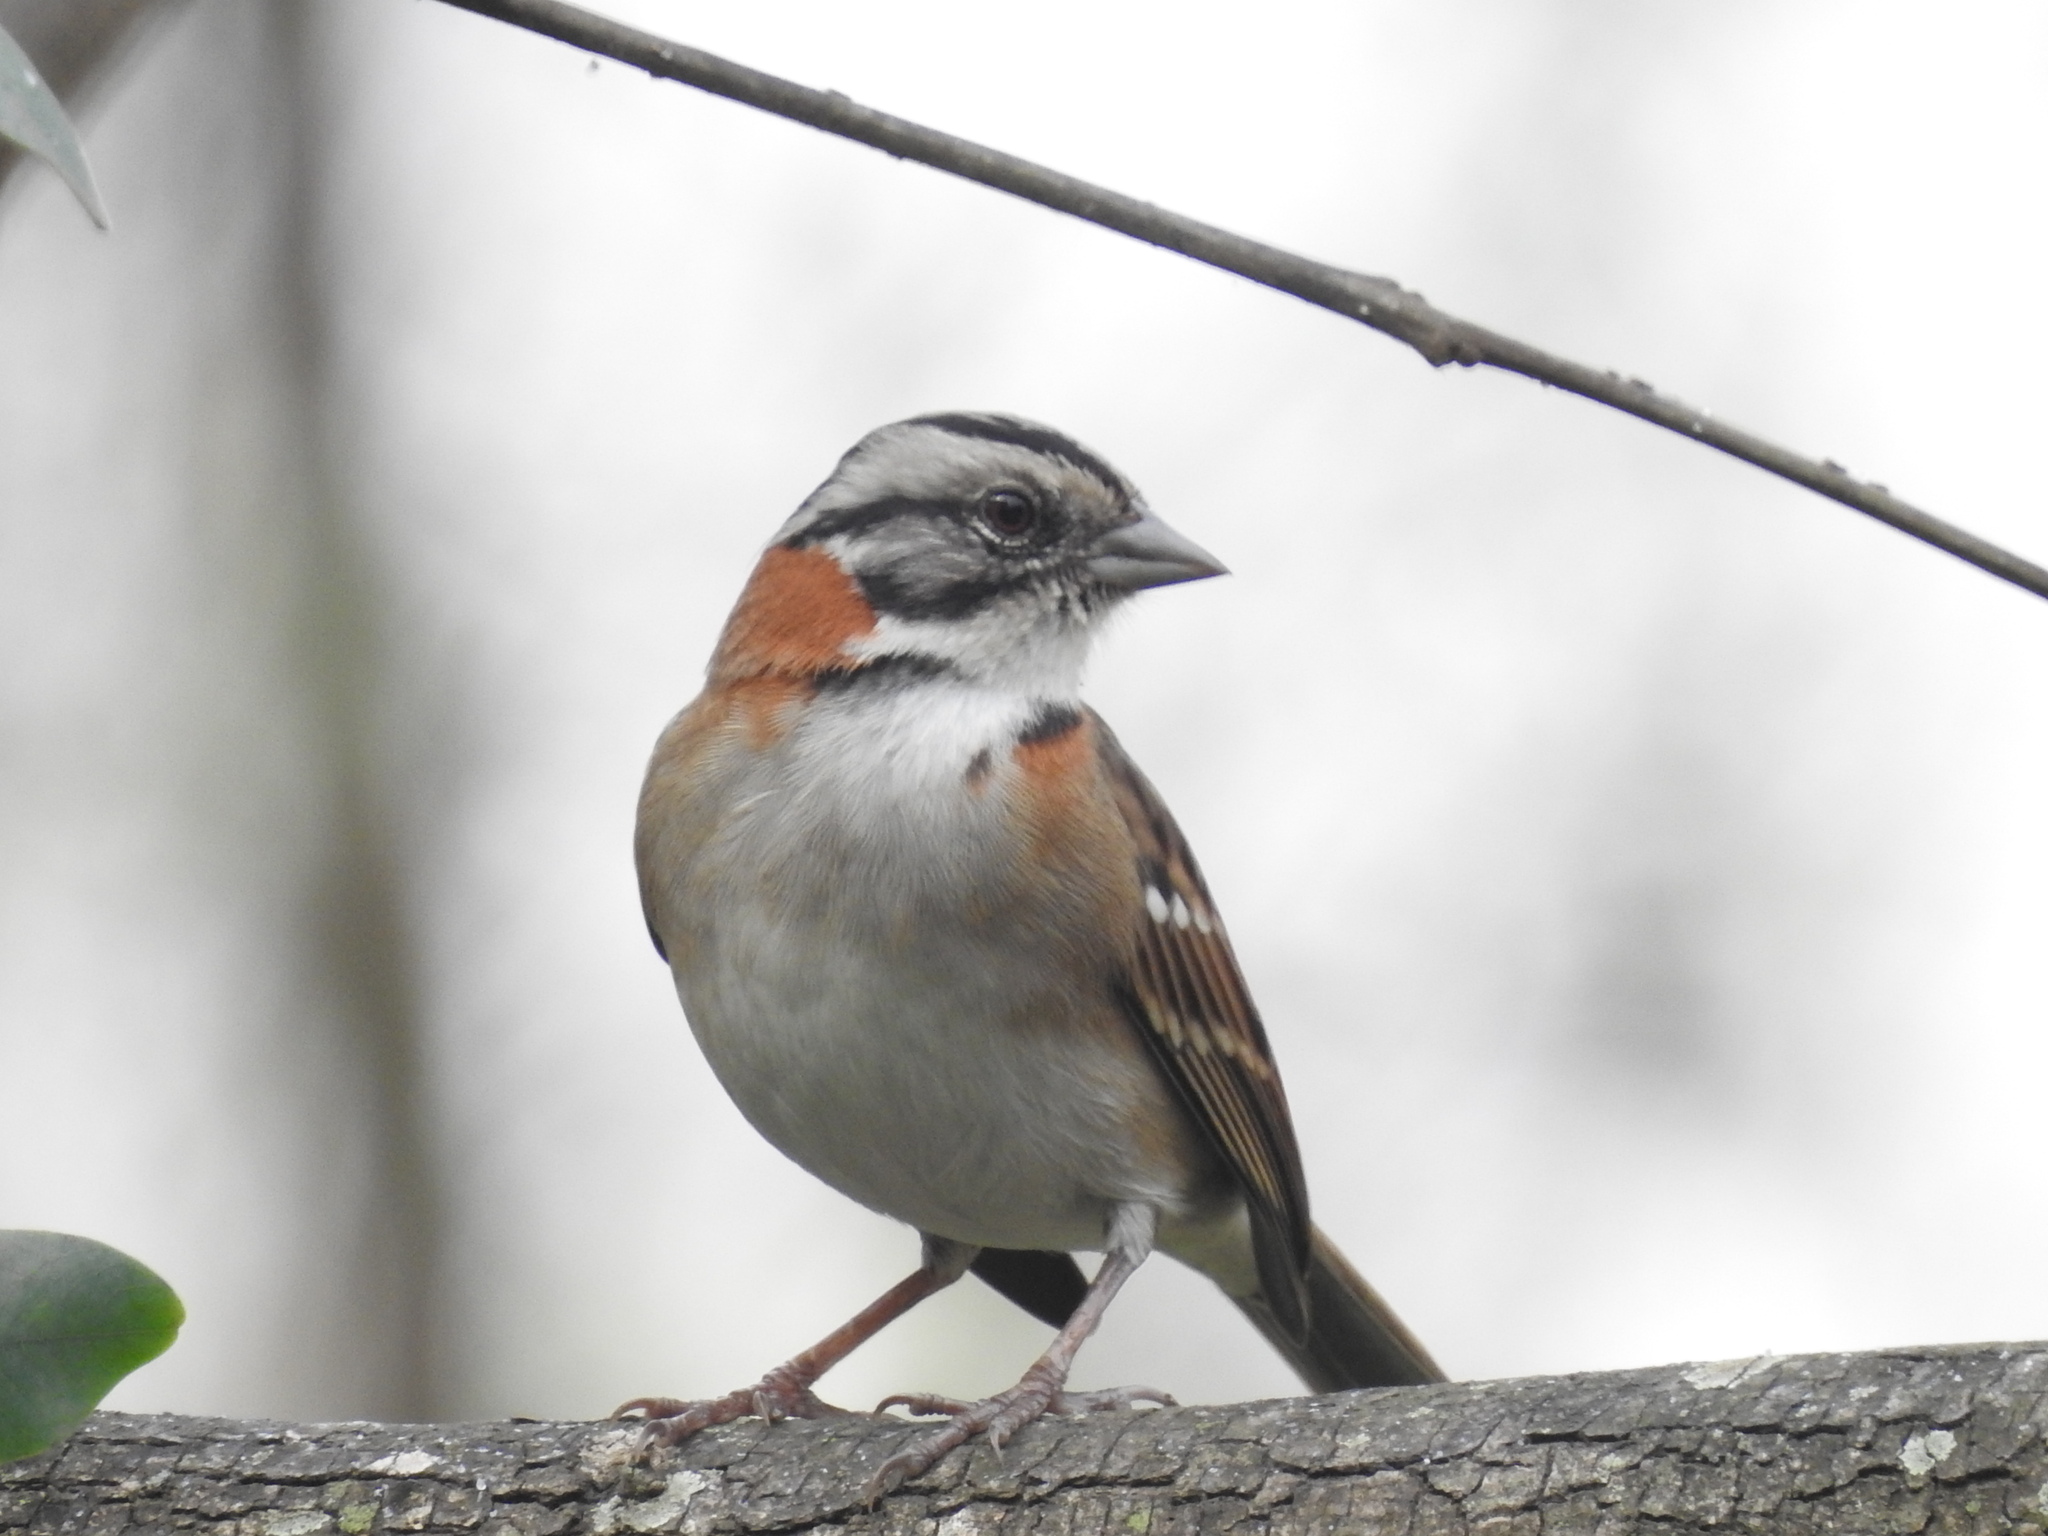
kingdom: Animalia
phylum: Chordata
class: Aves
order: Passeriformes
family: Passerellidae
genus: Zonotrichia
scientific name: Zonotrichia capensis
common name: Rufous-collared sparrow
